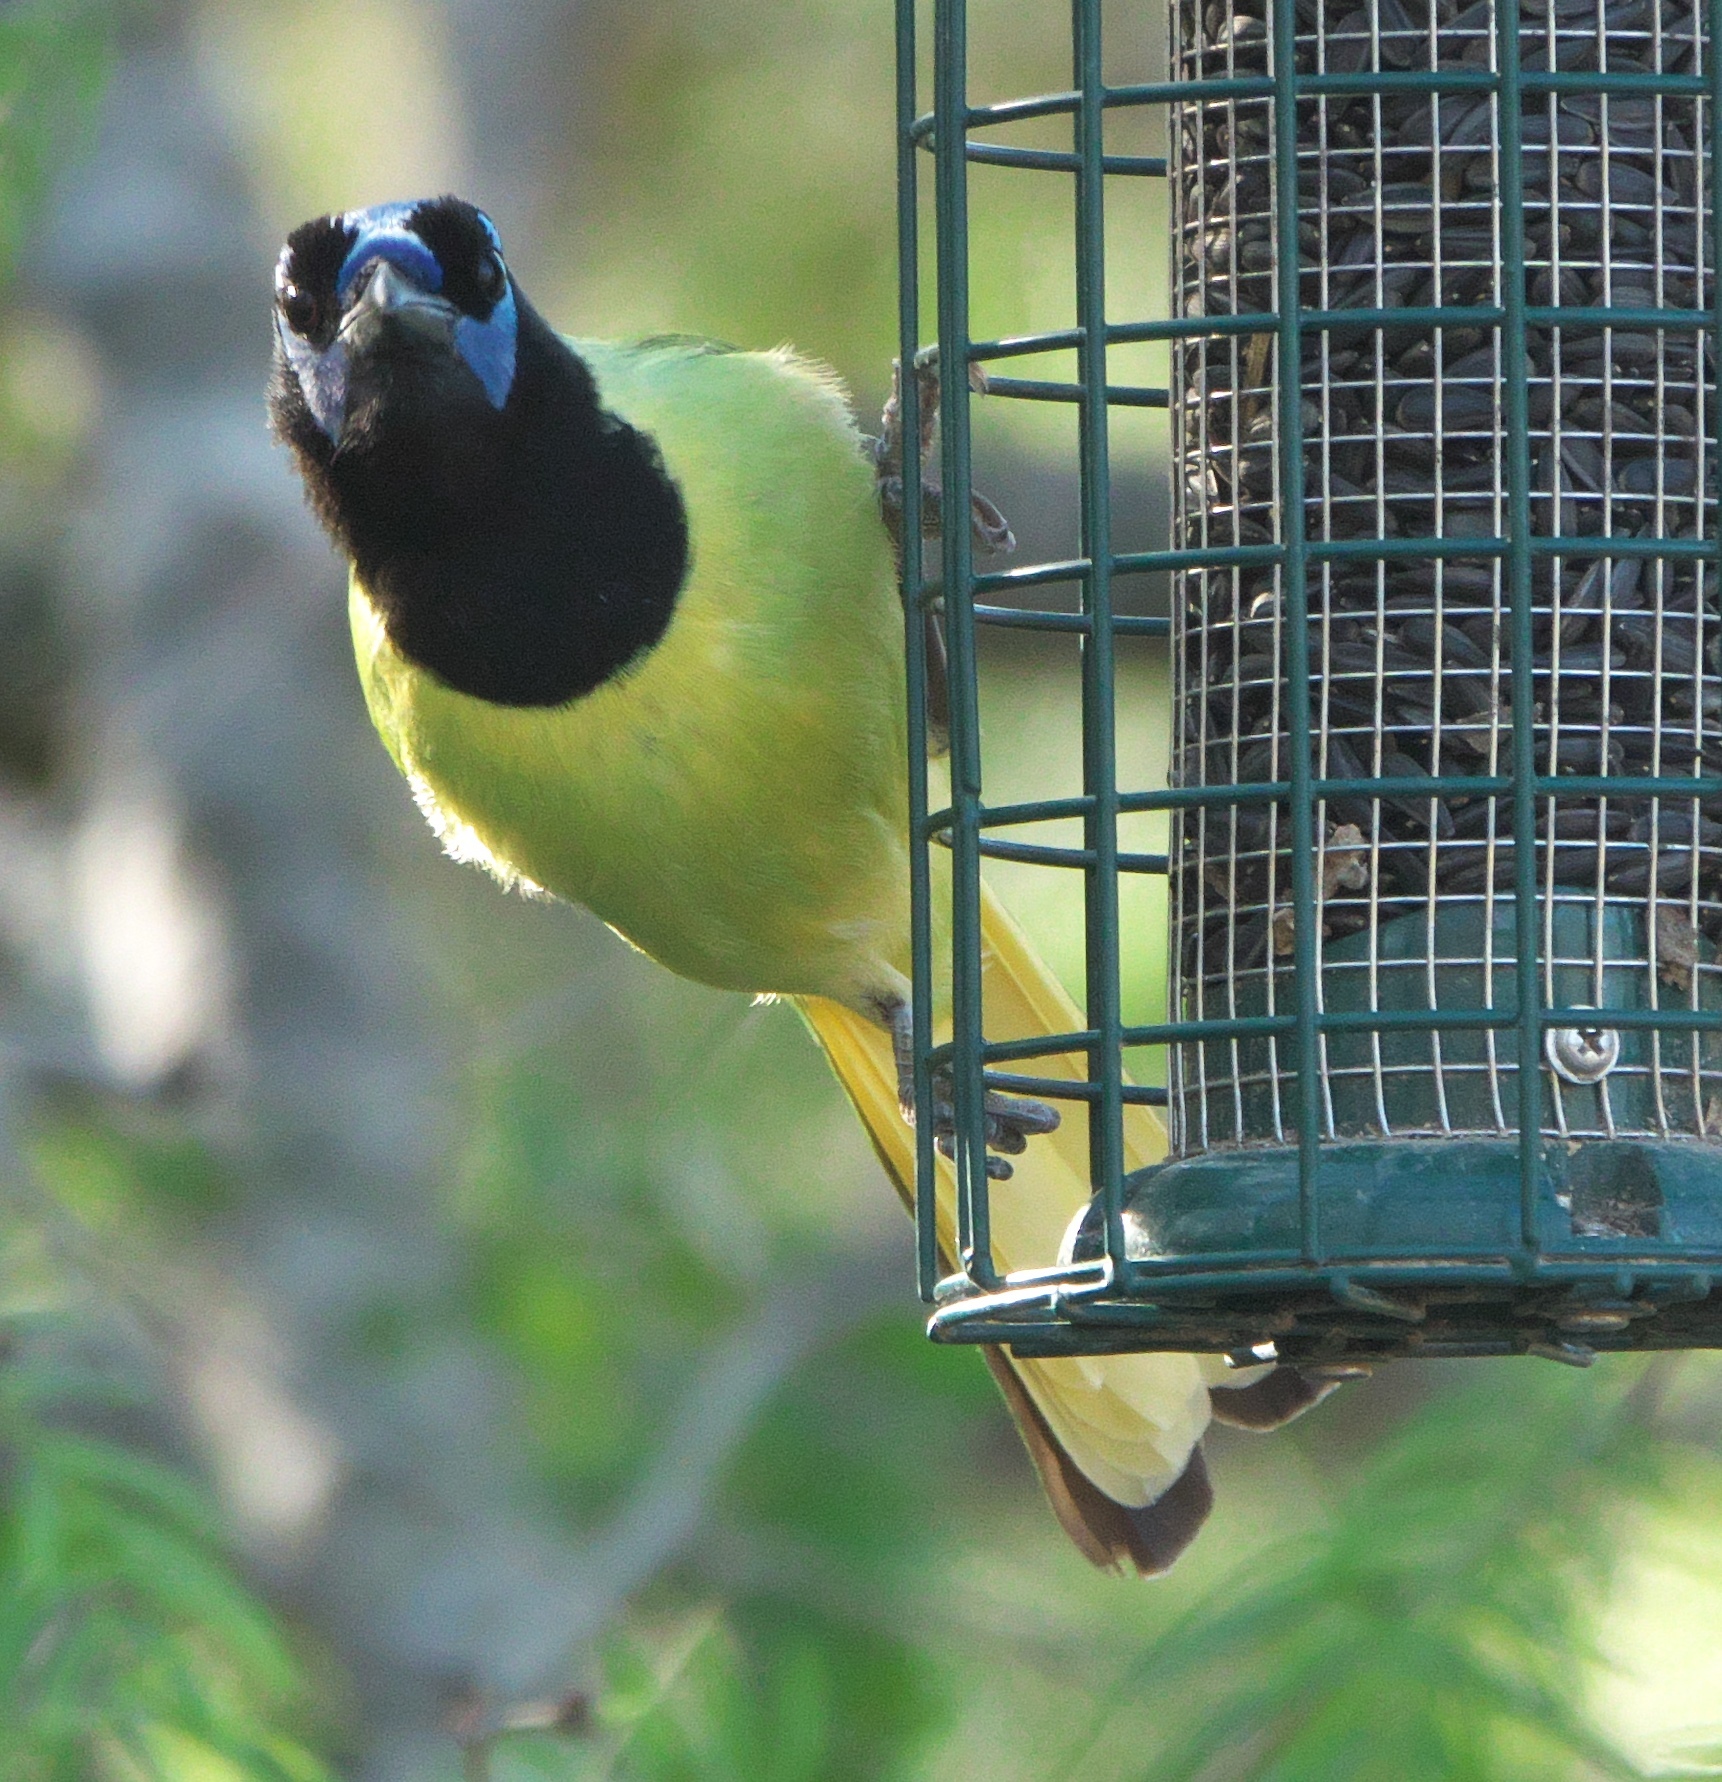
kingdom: Animalia
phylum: Chordata
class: Aves
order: Passeriformes
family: Corvidae
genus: Cyanocorax
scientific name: Cyanocorax yncas
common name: Green jay
